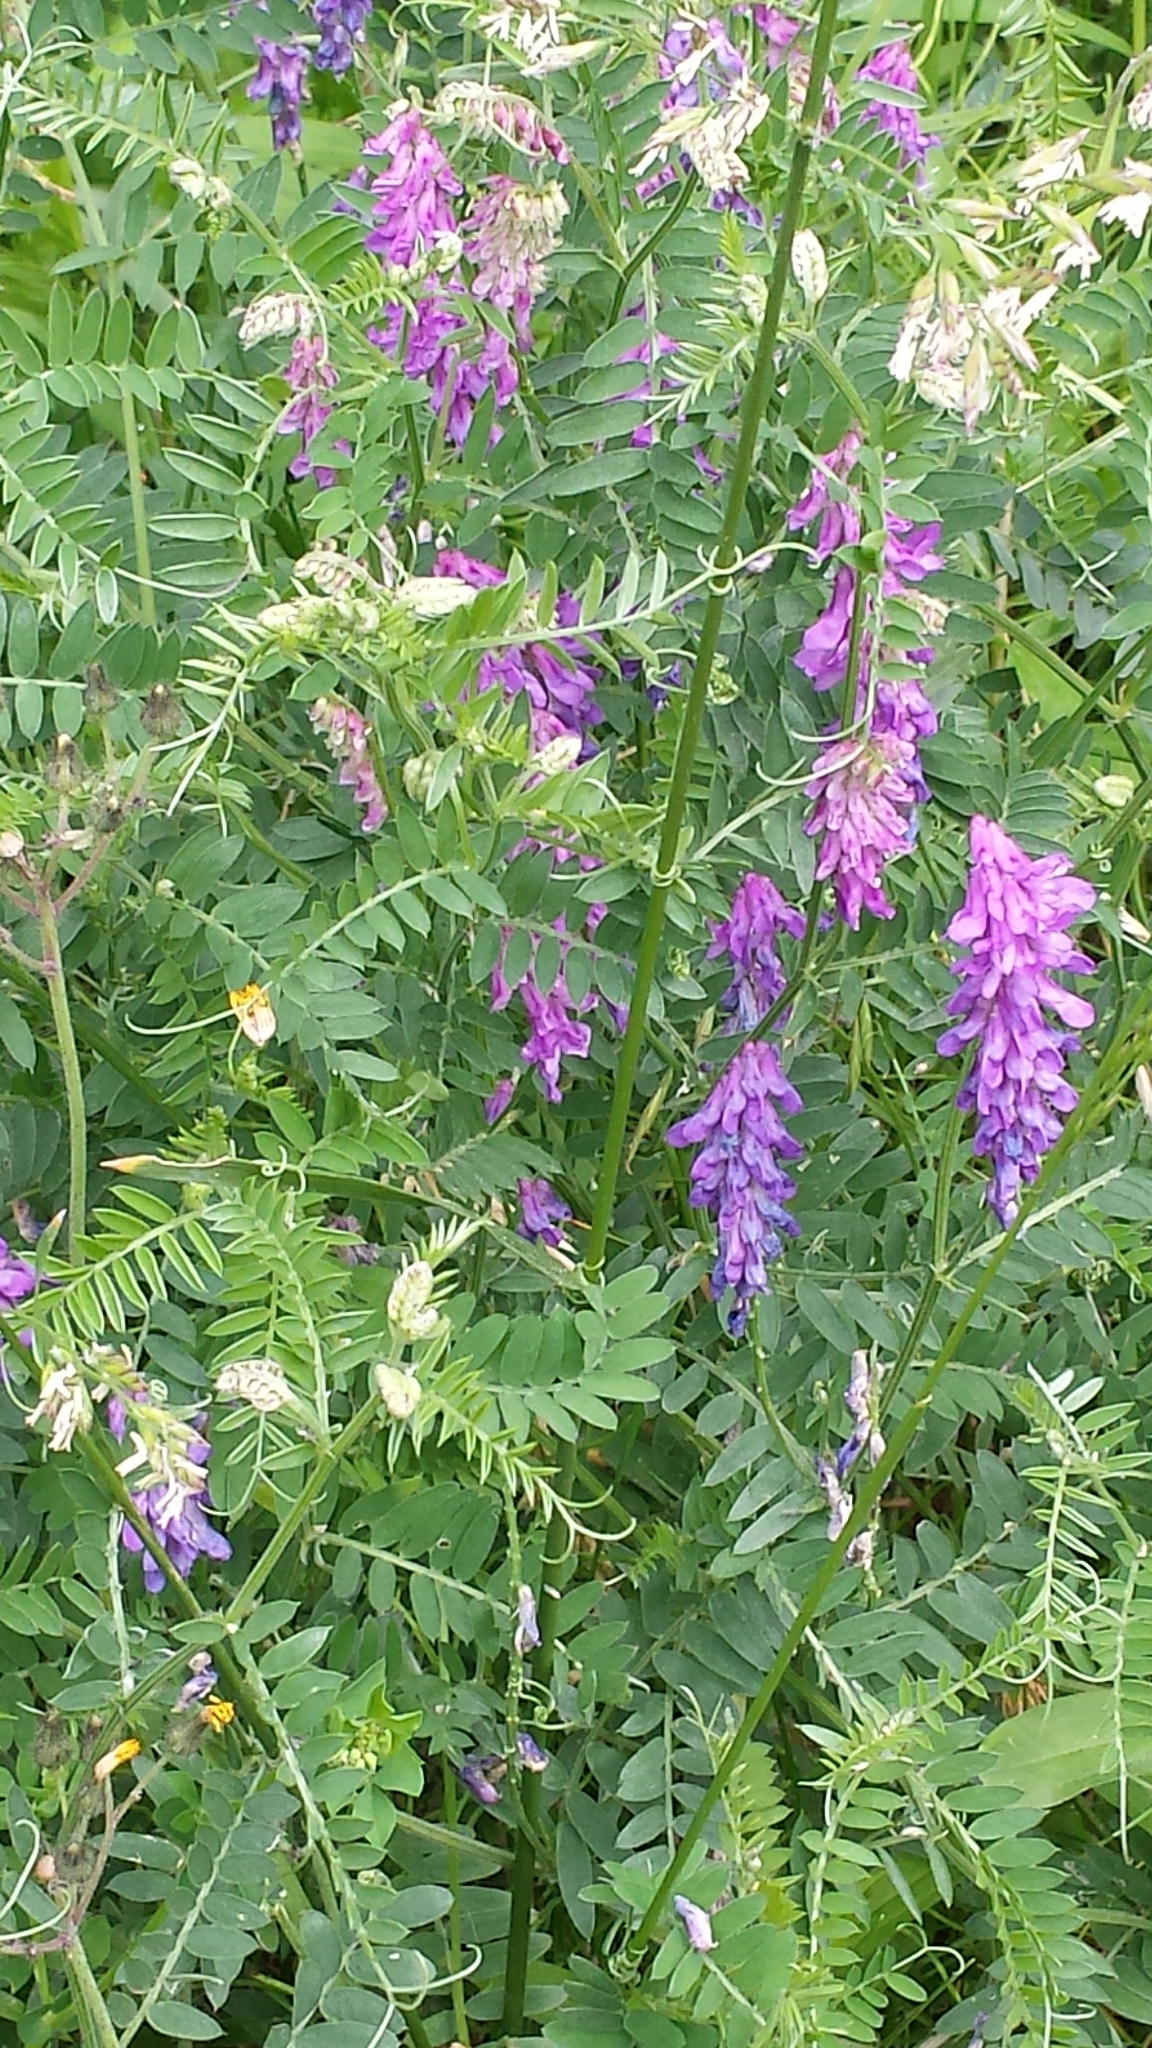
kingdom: Plantae
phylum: Tracheophyta
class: Magnoliopsida
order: Fabales
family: Fabaceae
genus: Vicia
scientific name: Vicia cracca
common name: Bird vetch
